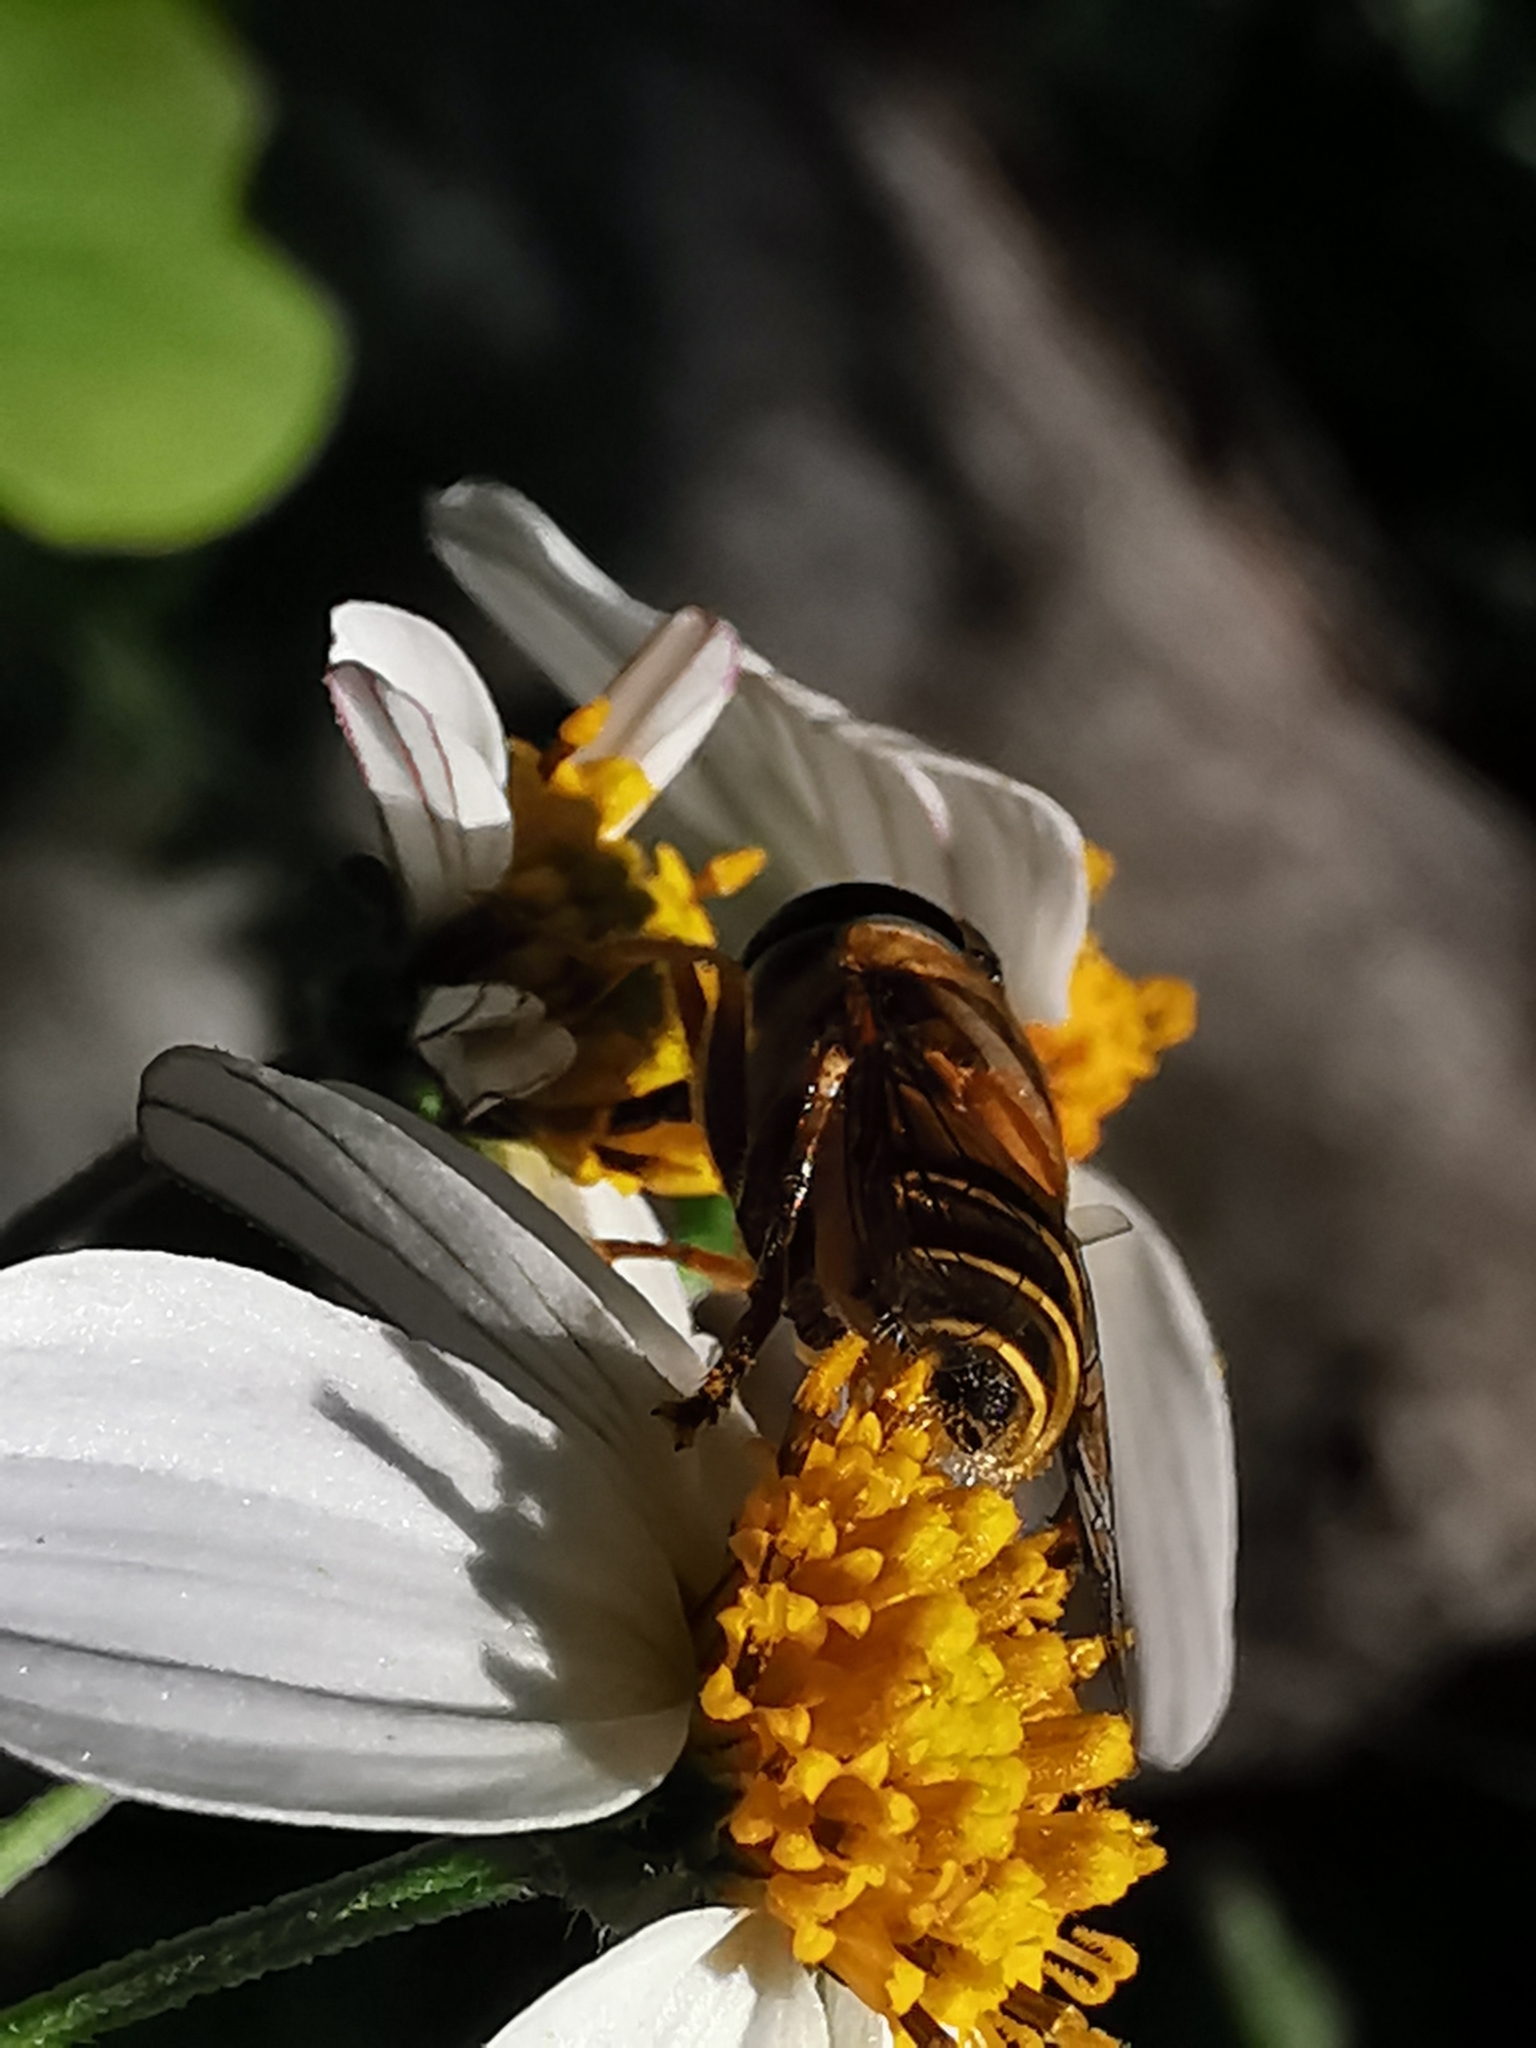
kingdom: Animalia
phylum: Arthropoda
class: Insecta
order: Diptera
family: Syrphidae
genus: Palpada
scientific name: Palpada vinetorum
